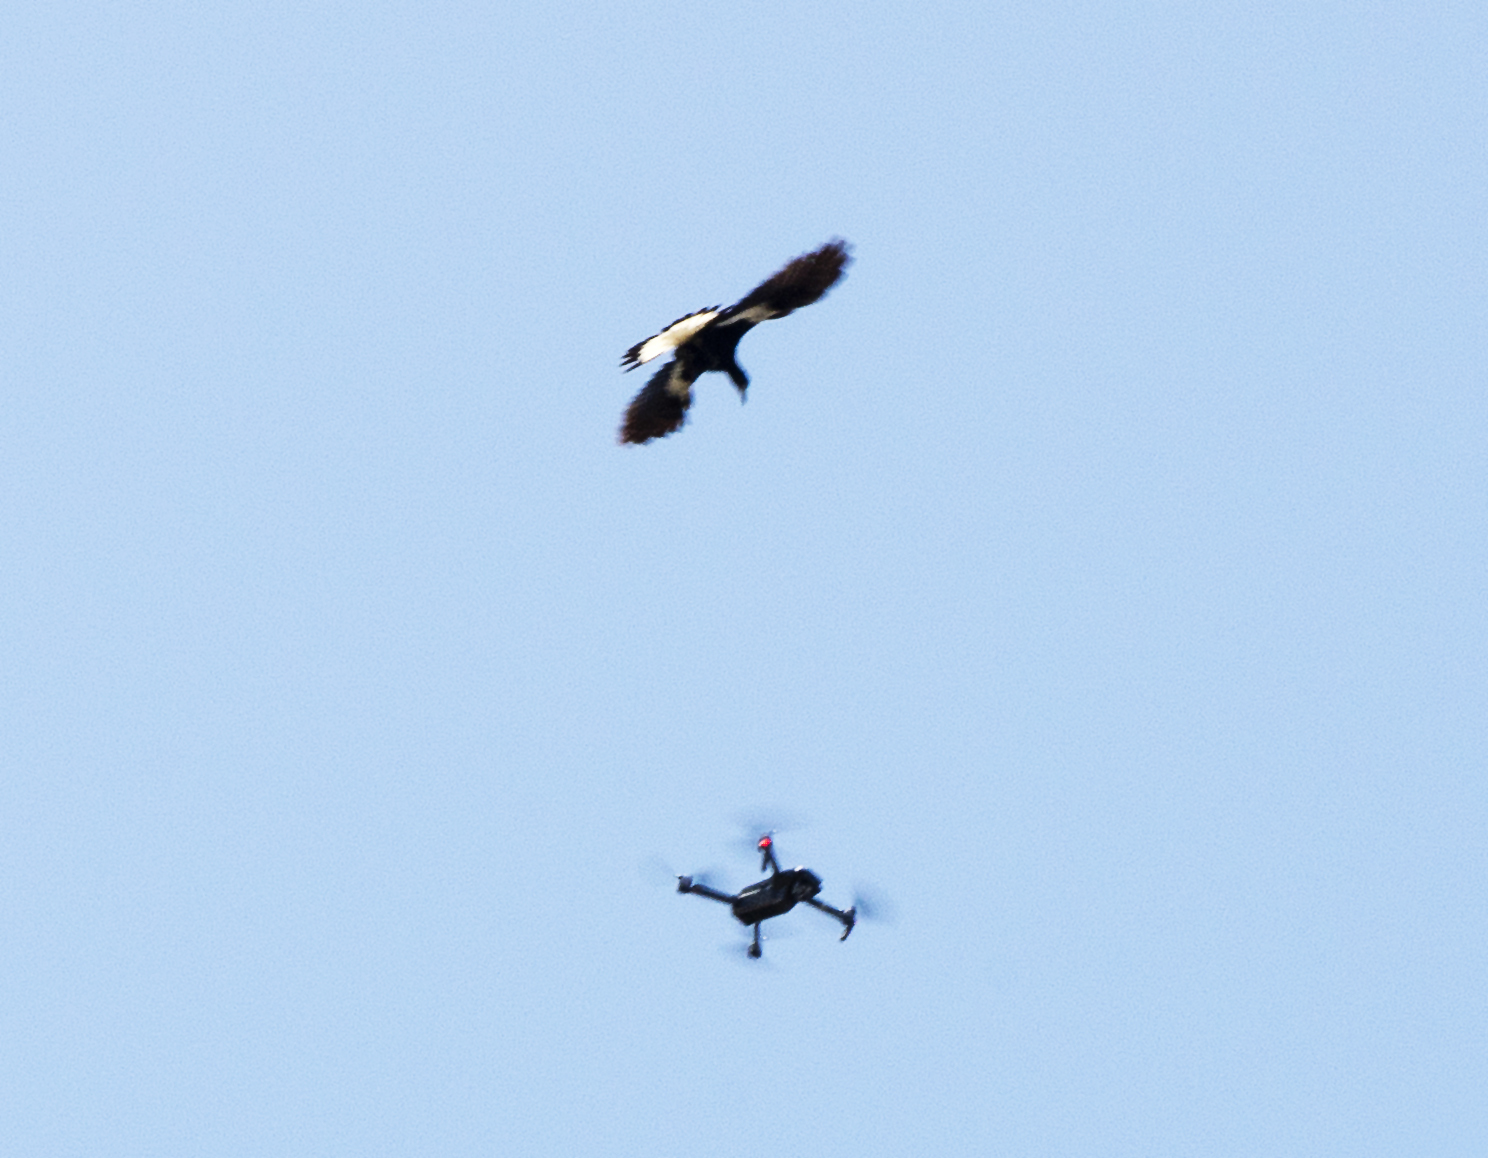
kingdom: Animalia
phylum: Chordata
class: Aves
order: Passeriformes
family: Cracticidae
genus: Gymnorhina
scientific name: Gymnorhina tibicen
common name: Australian magpie
